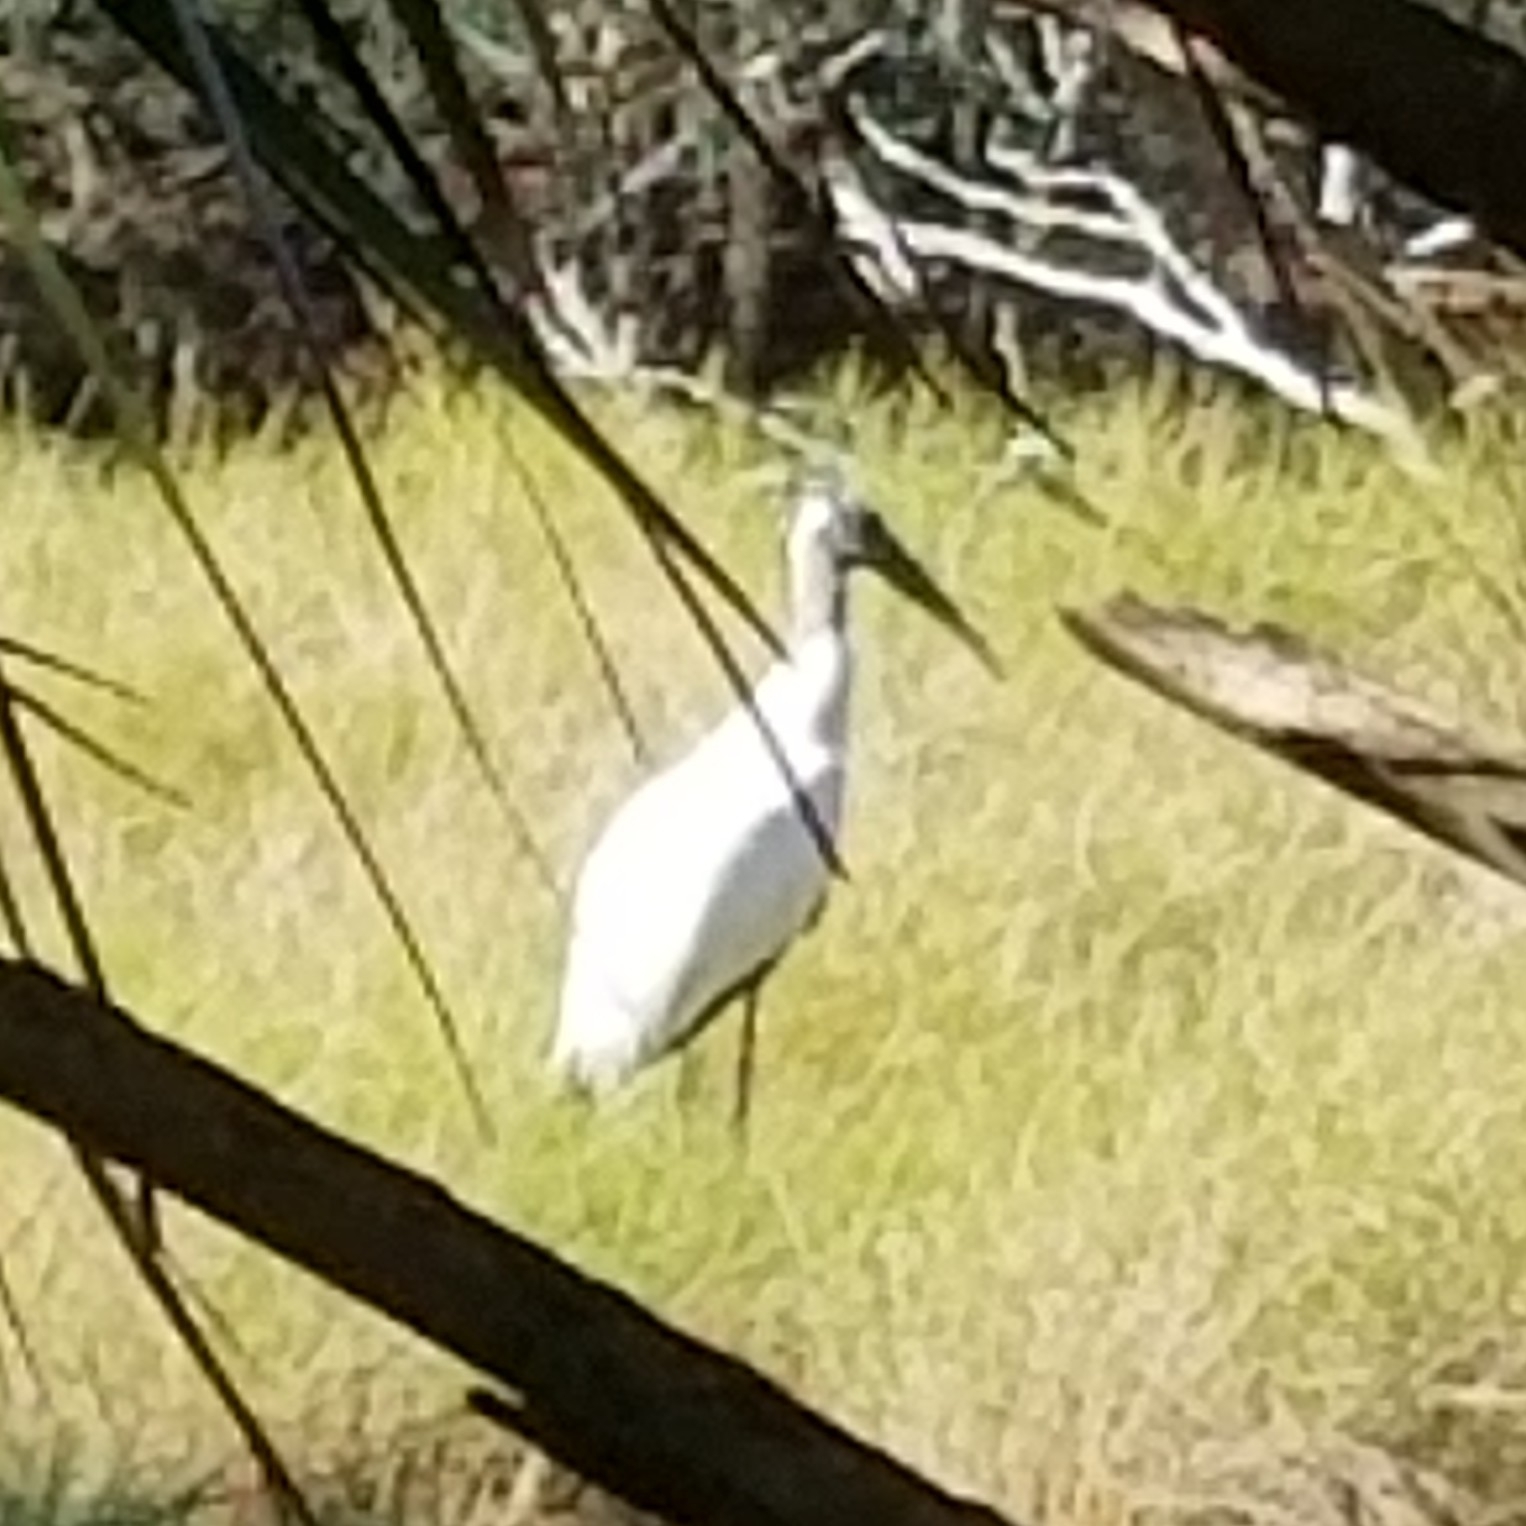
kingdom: Animalia
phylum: Chordata
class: Aves
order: Ciconiiformes
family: Ciconiidae
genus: Mycteria
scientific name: Mycteria americana
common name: Wood stork
